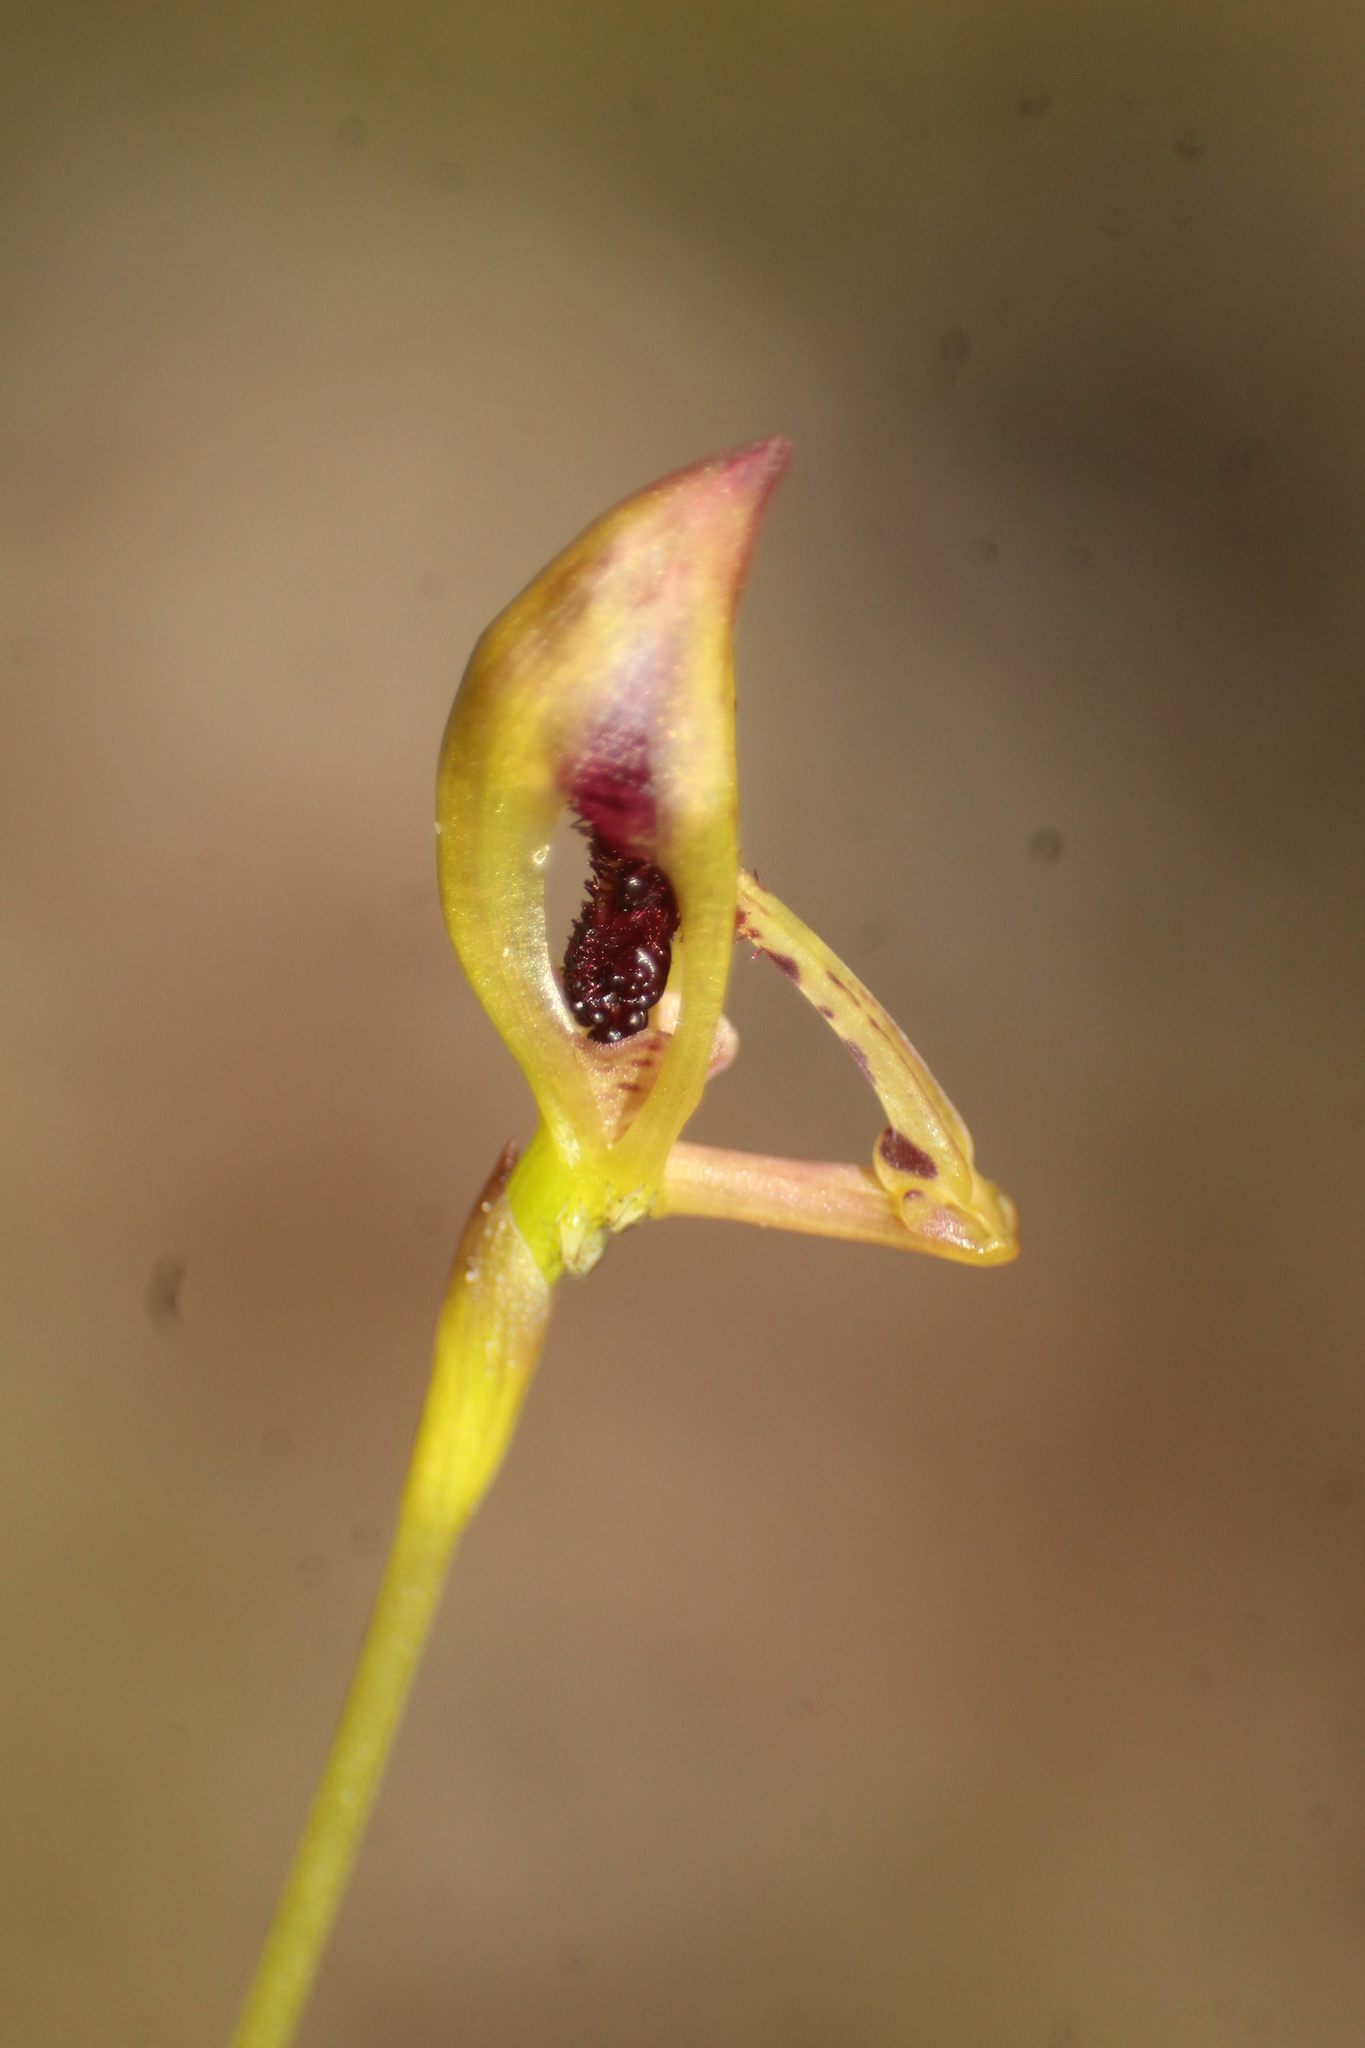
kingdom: Plantae
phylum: Tracheophyta
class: Liliopsida
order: Asparagales
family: Orchidaceae
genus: Drakaea
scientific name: Drakaea livida
